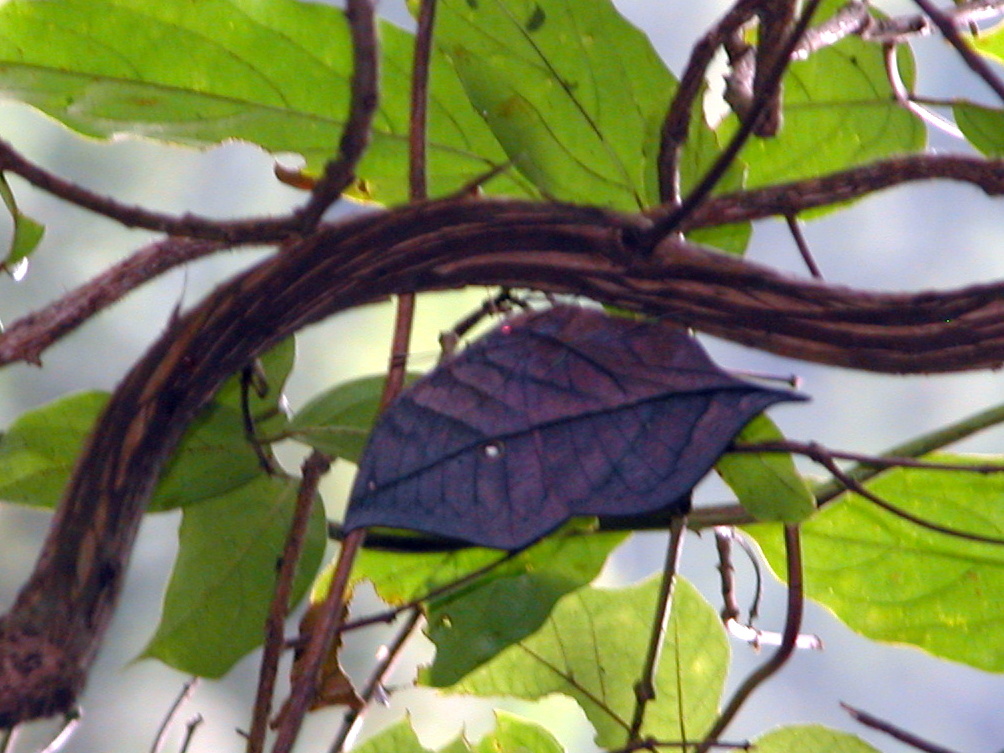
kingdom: Animalia
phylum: Arthropoda
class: Insecta
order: Lepidoptera
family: Nymphalidae
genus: Kallima
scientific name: Kallima inachus
